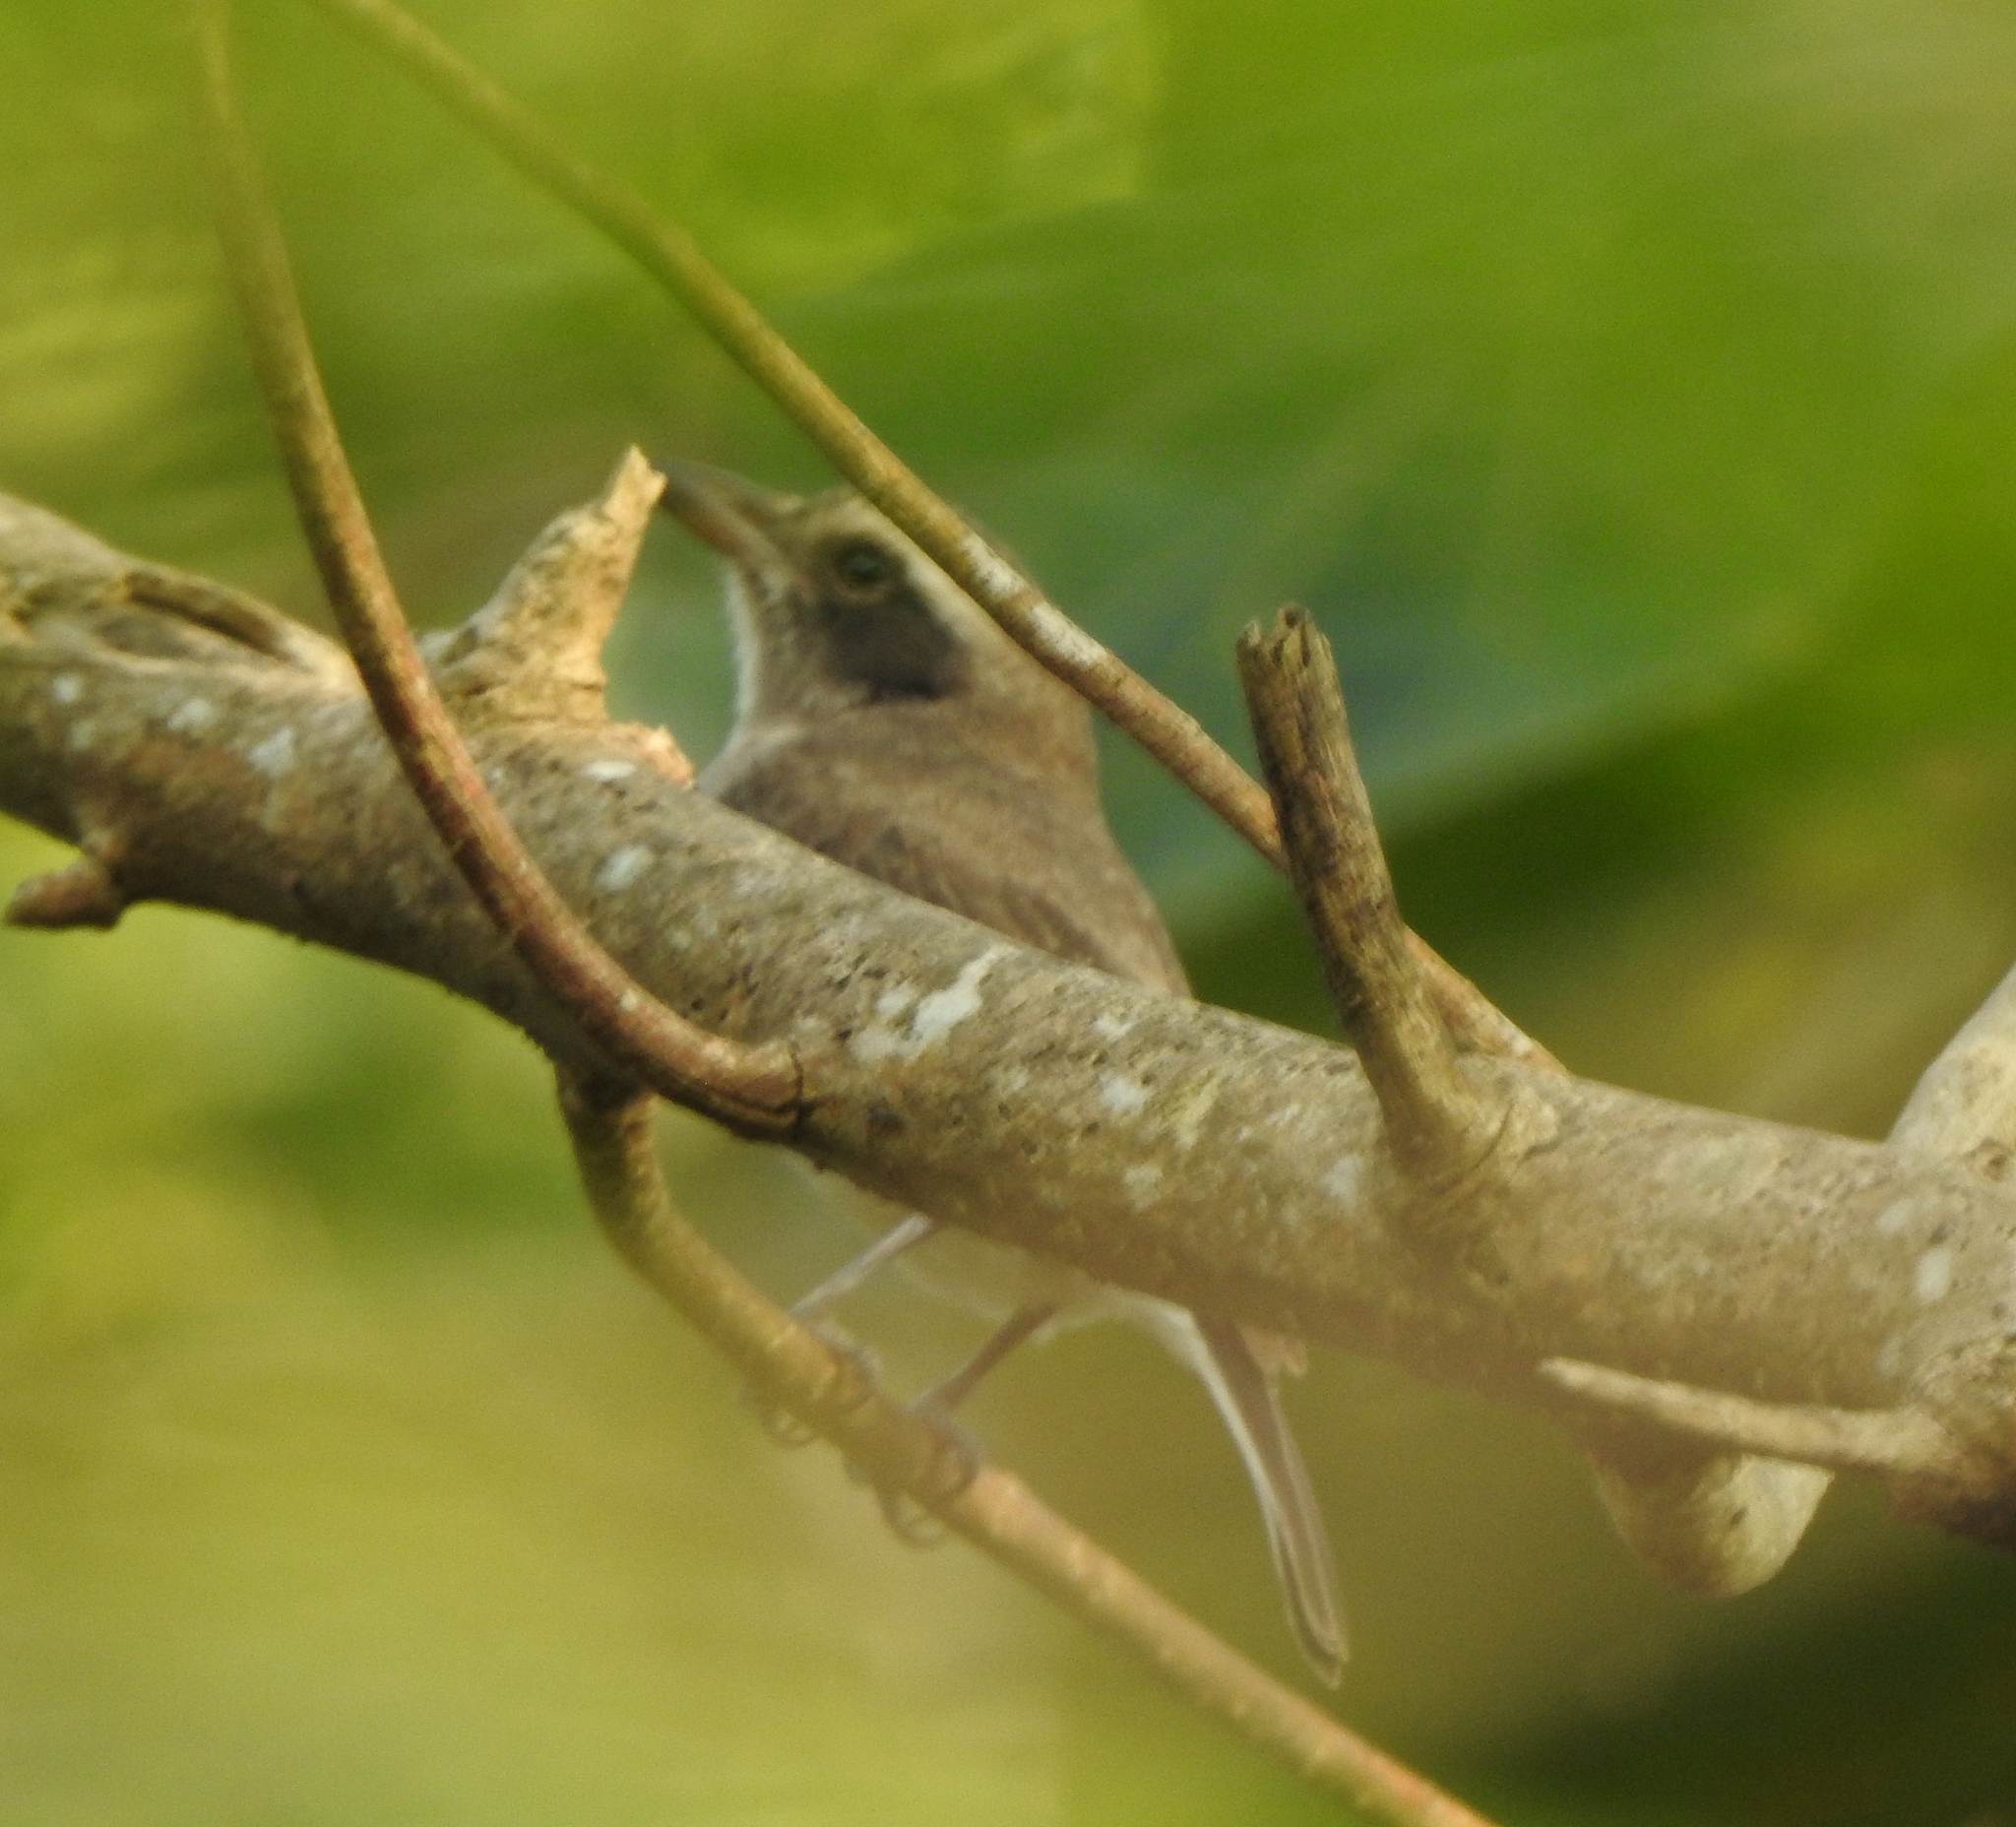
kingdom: Animalia
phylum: Chordata
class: Aves
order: Passeriformes
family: Tephrodornithidae
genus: Tephrodornis
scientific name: Tephrodornis pondicerianus
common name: Common woodshrike
